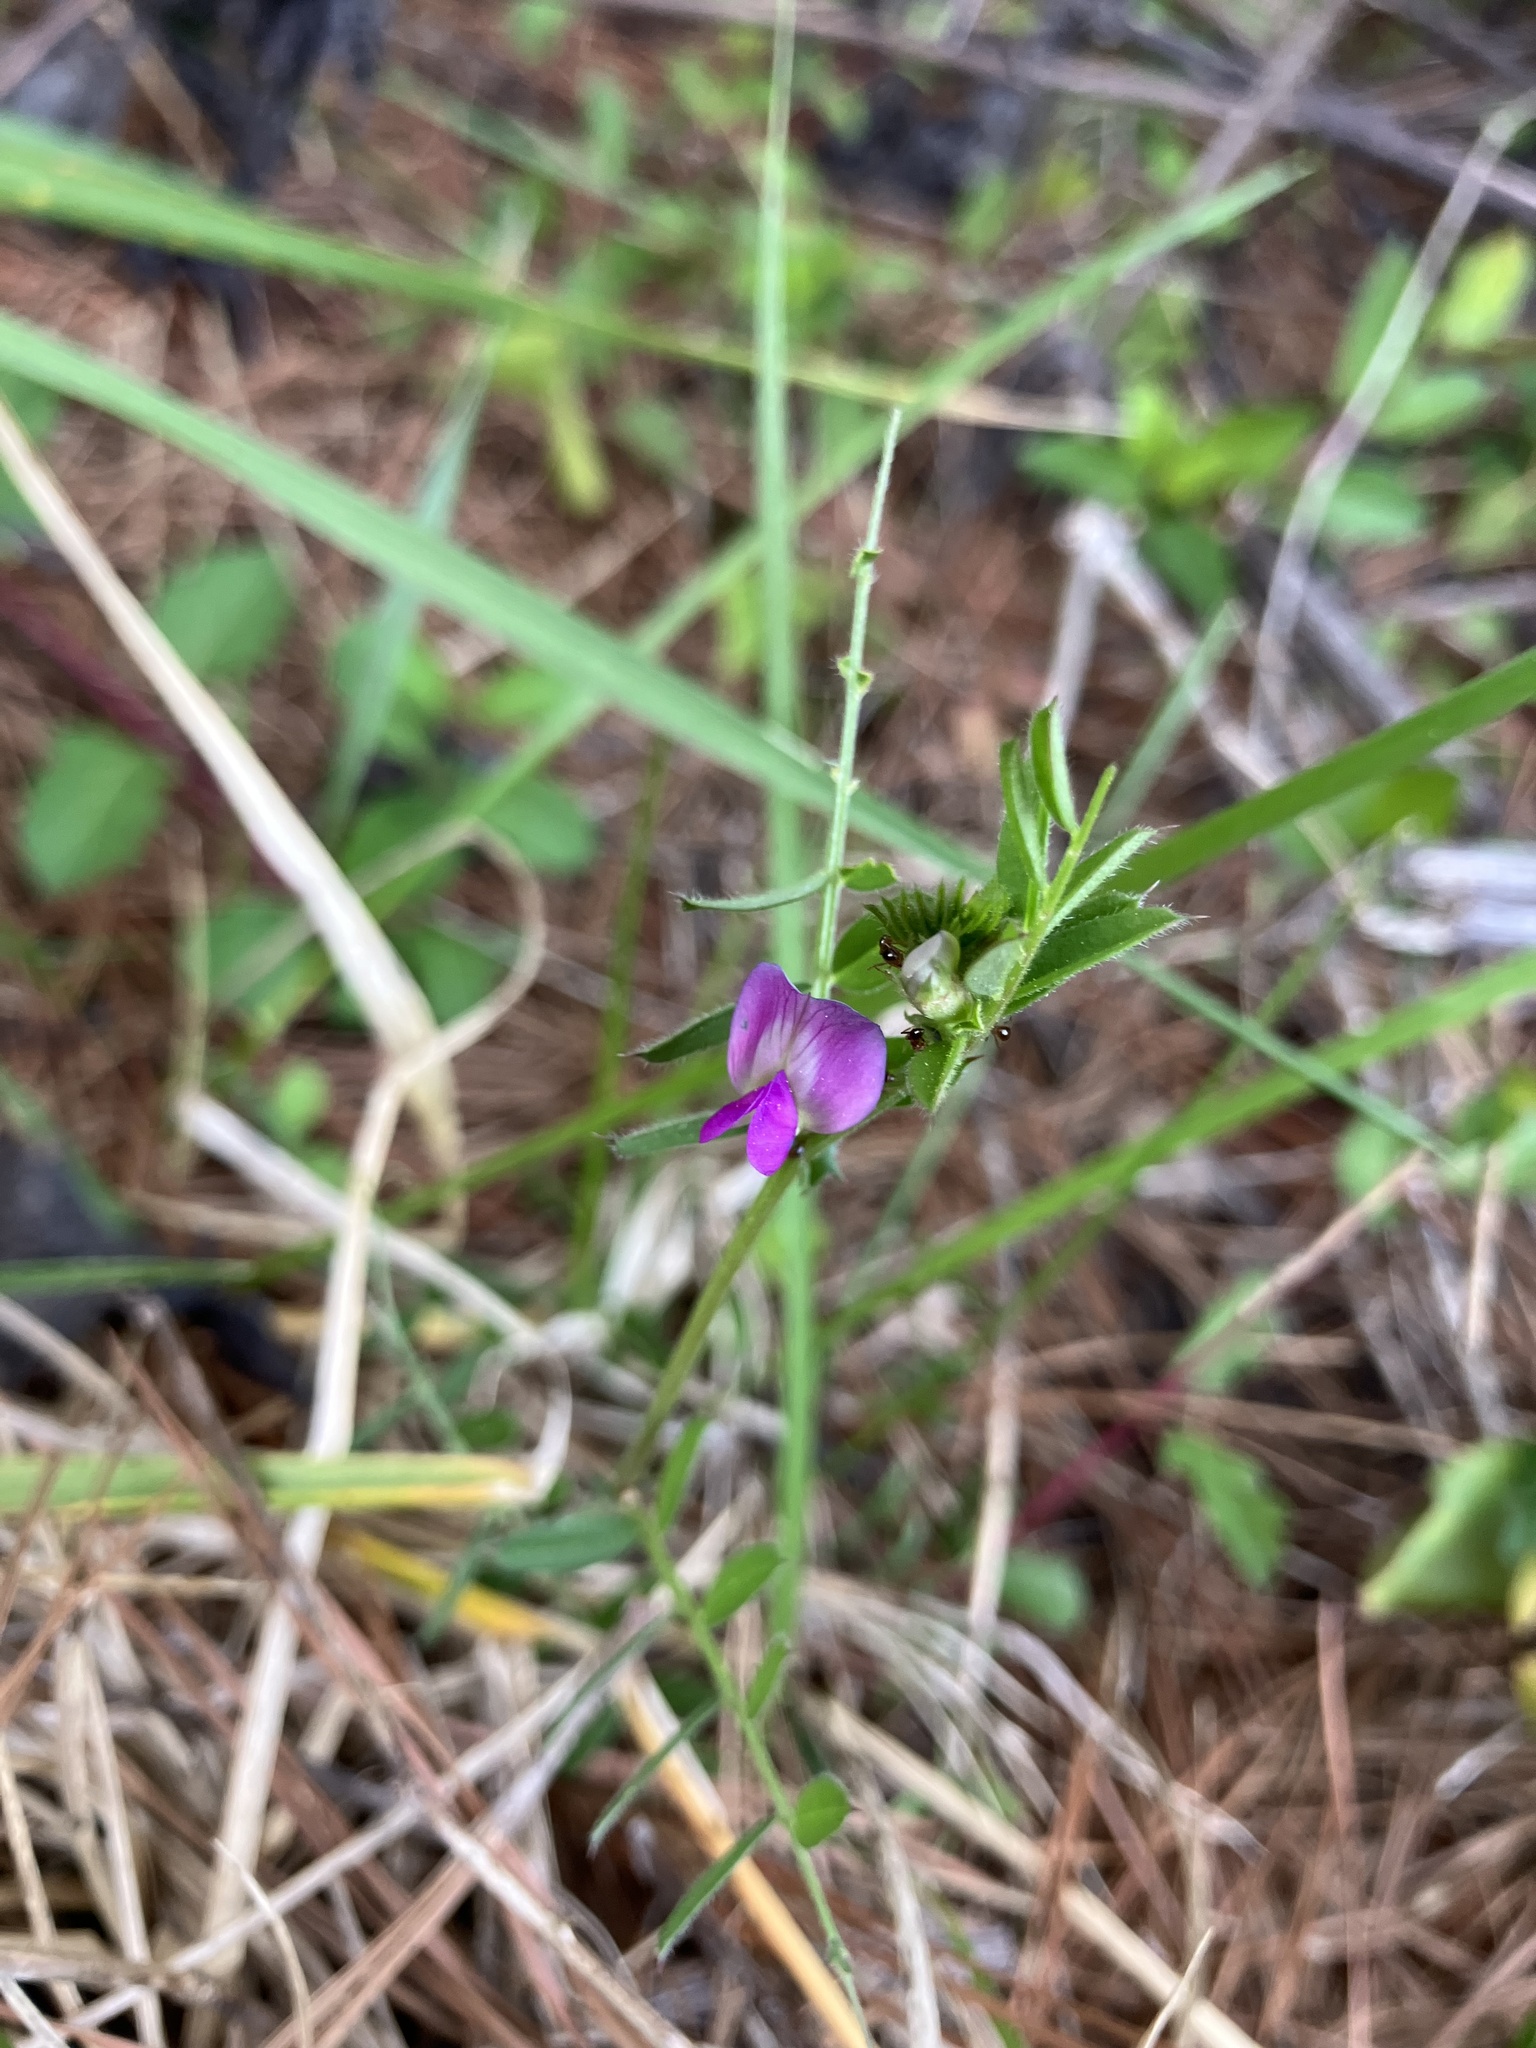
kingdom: Plantae
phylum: Tracheophyta
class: Magnoliopsida
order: Fabales
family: Fabaceae
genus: Vicia
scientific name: Vicia sativa
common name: Garden vetch
